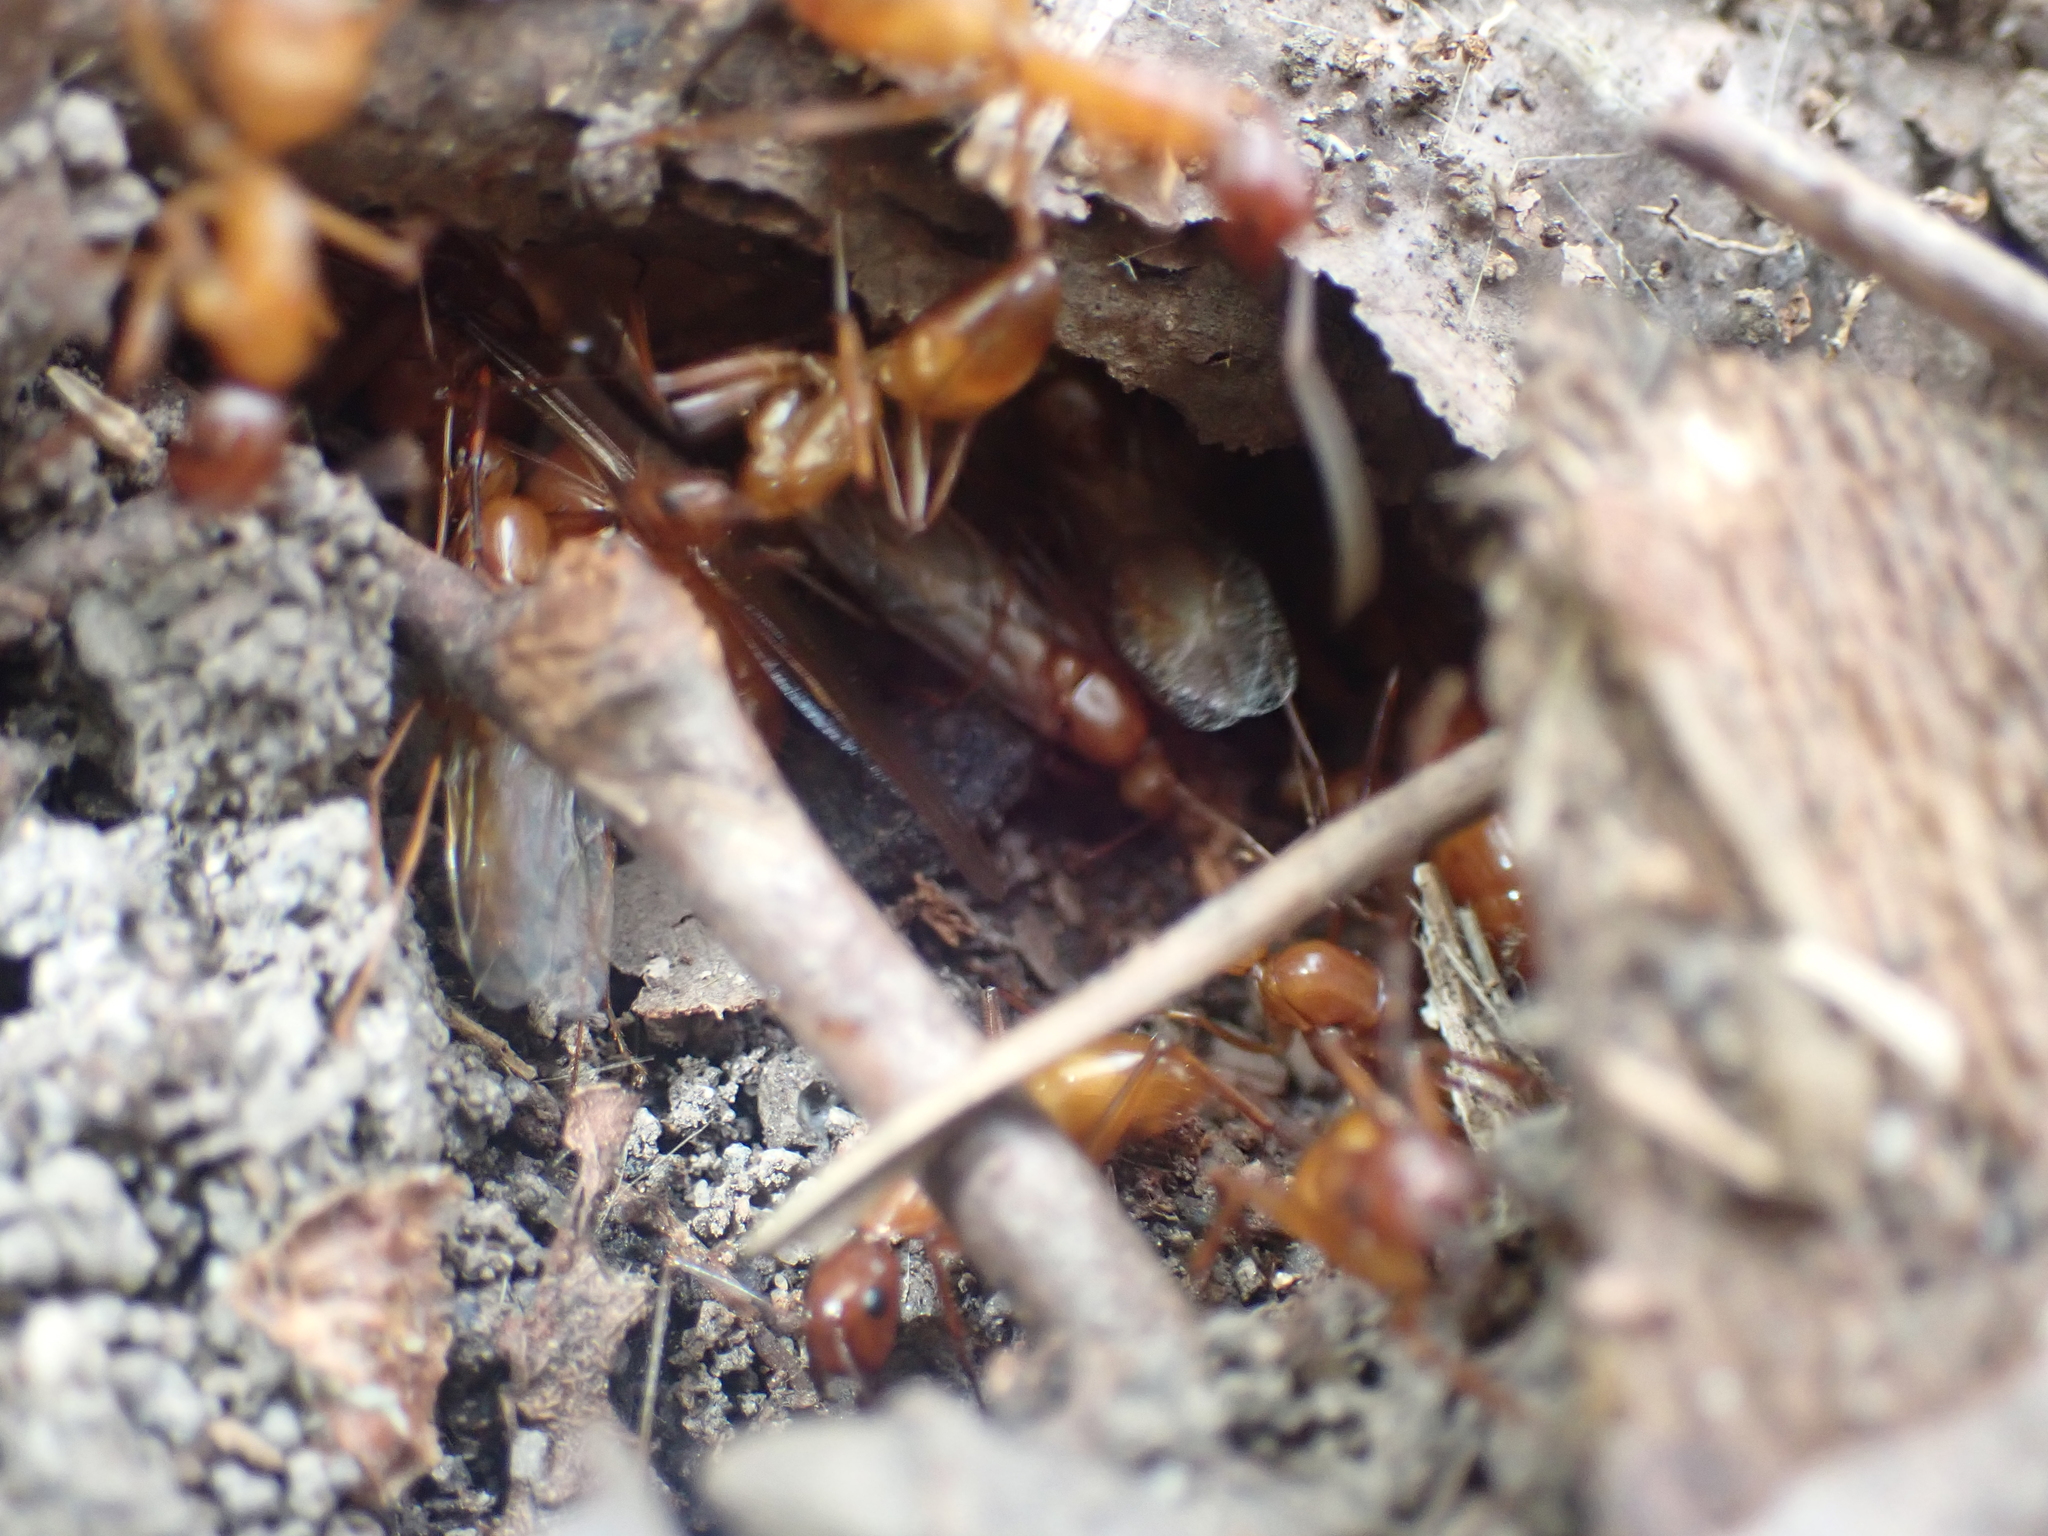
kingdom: Animalia
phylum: Arthropoda
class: Insecta
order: Hymenoptera
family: Formicidae
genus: Camponotus
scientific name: Camponotus castaneus
